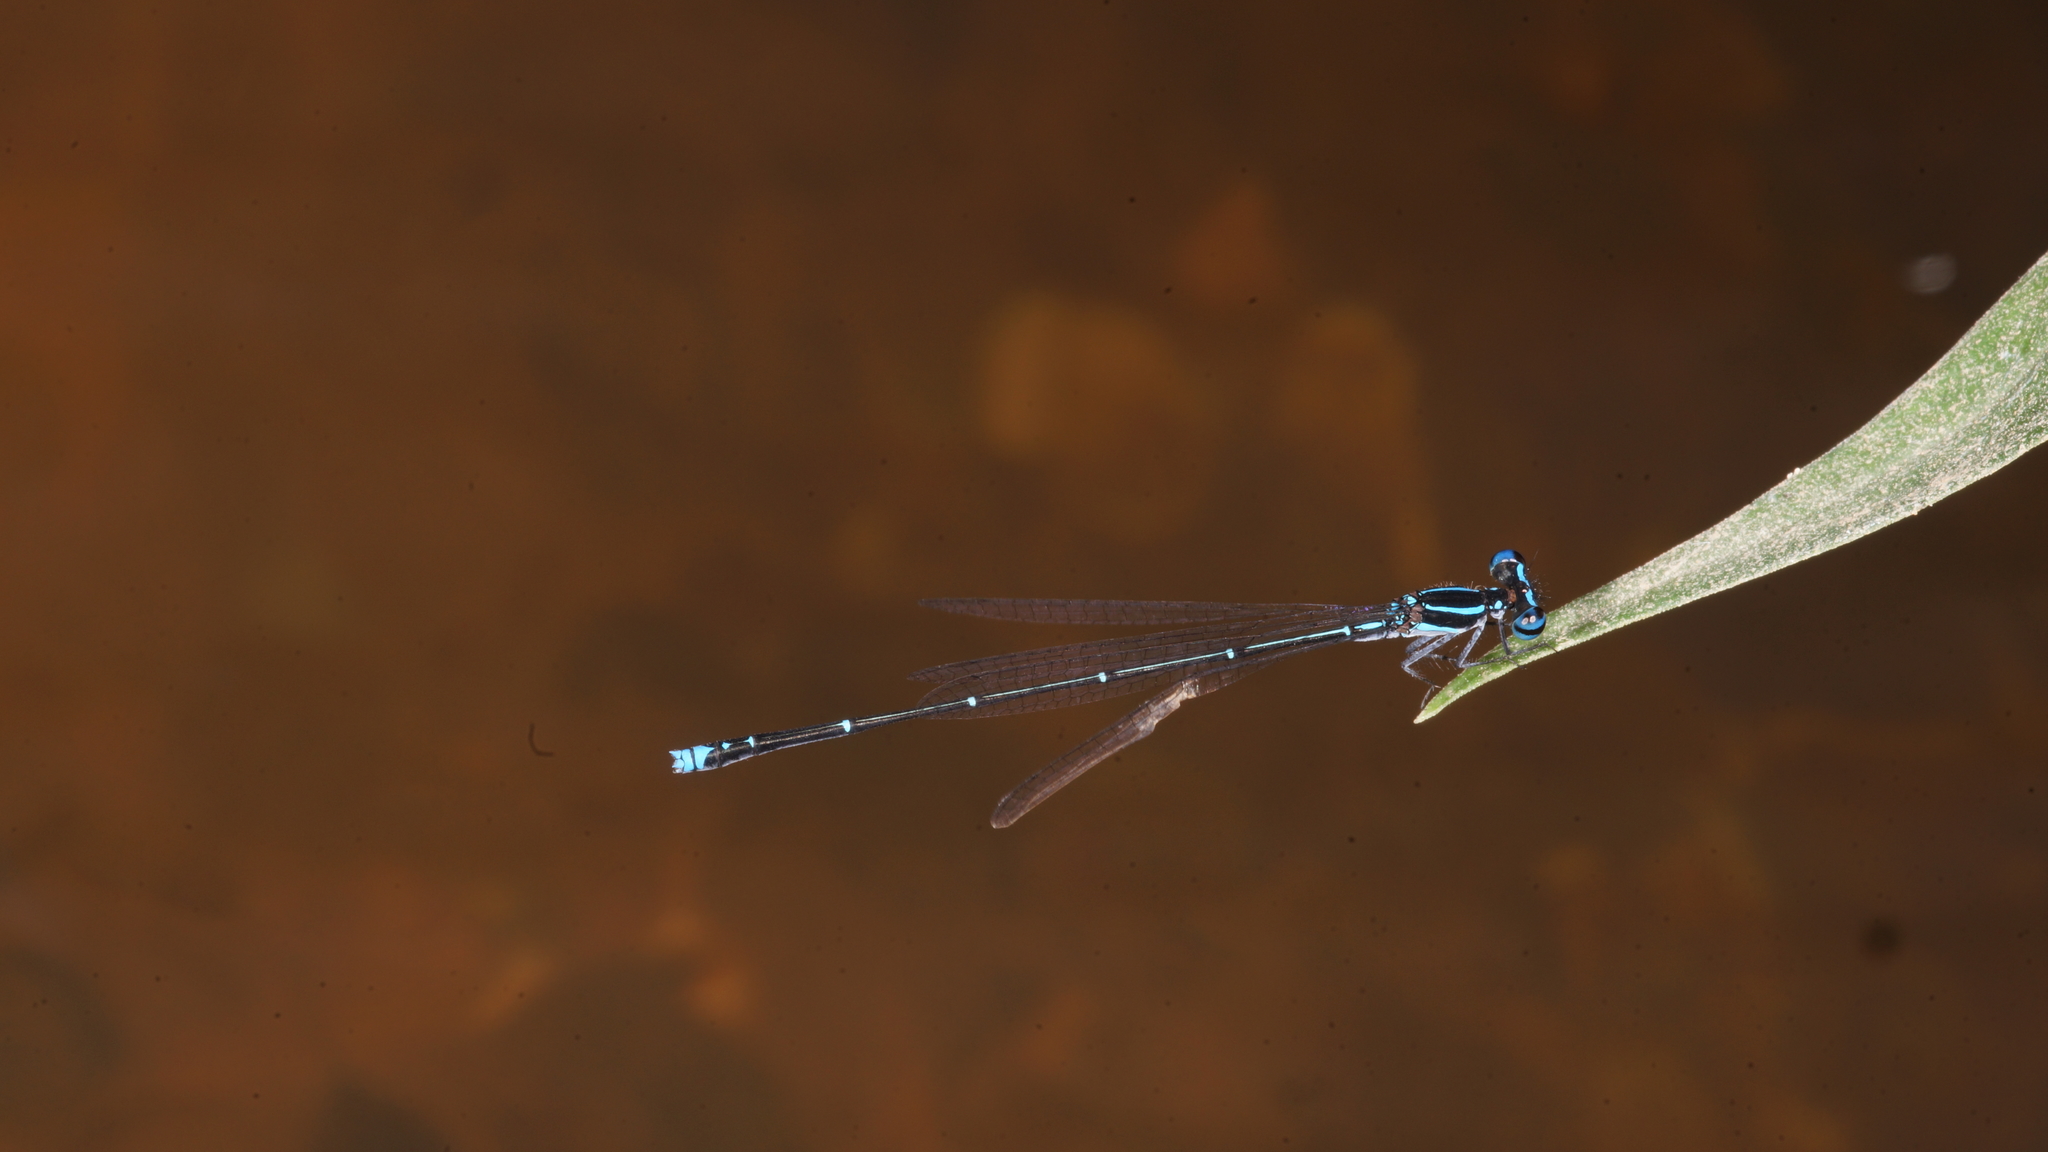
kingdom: Animalia
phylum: Arthropoda
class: Insecta
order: Odonata
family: Platycnemididae
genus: Prodasineura
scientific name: Prodasineura coerulescens
